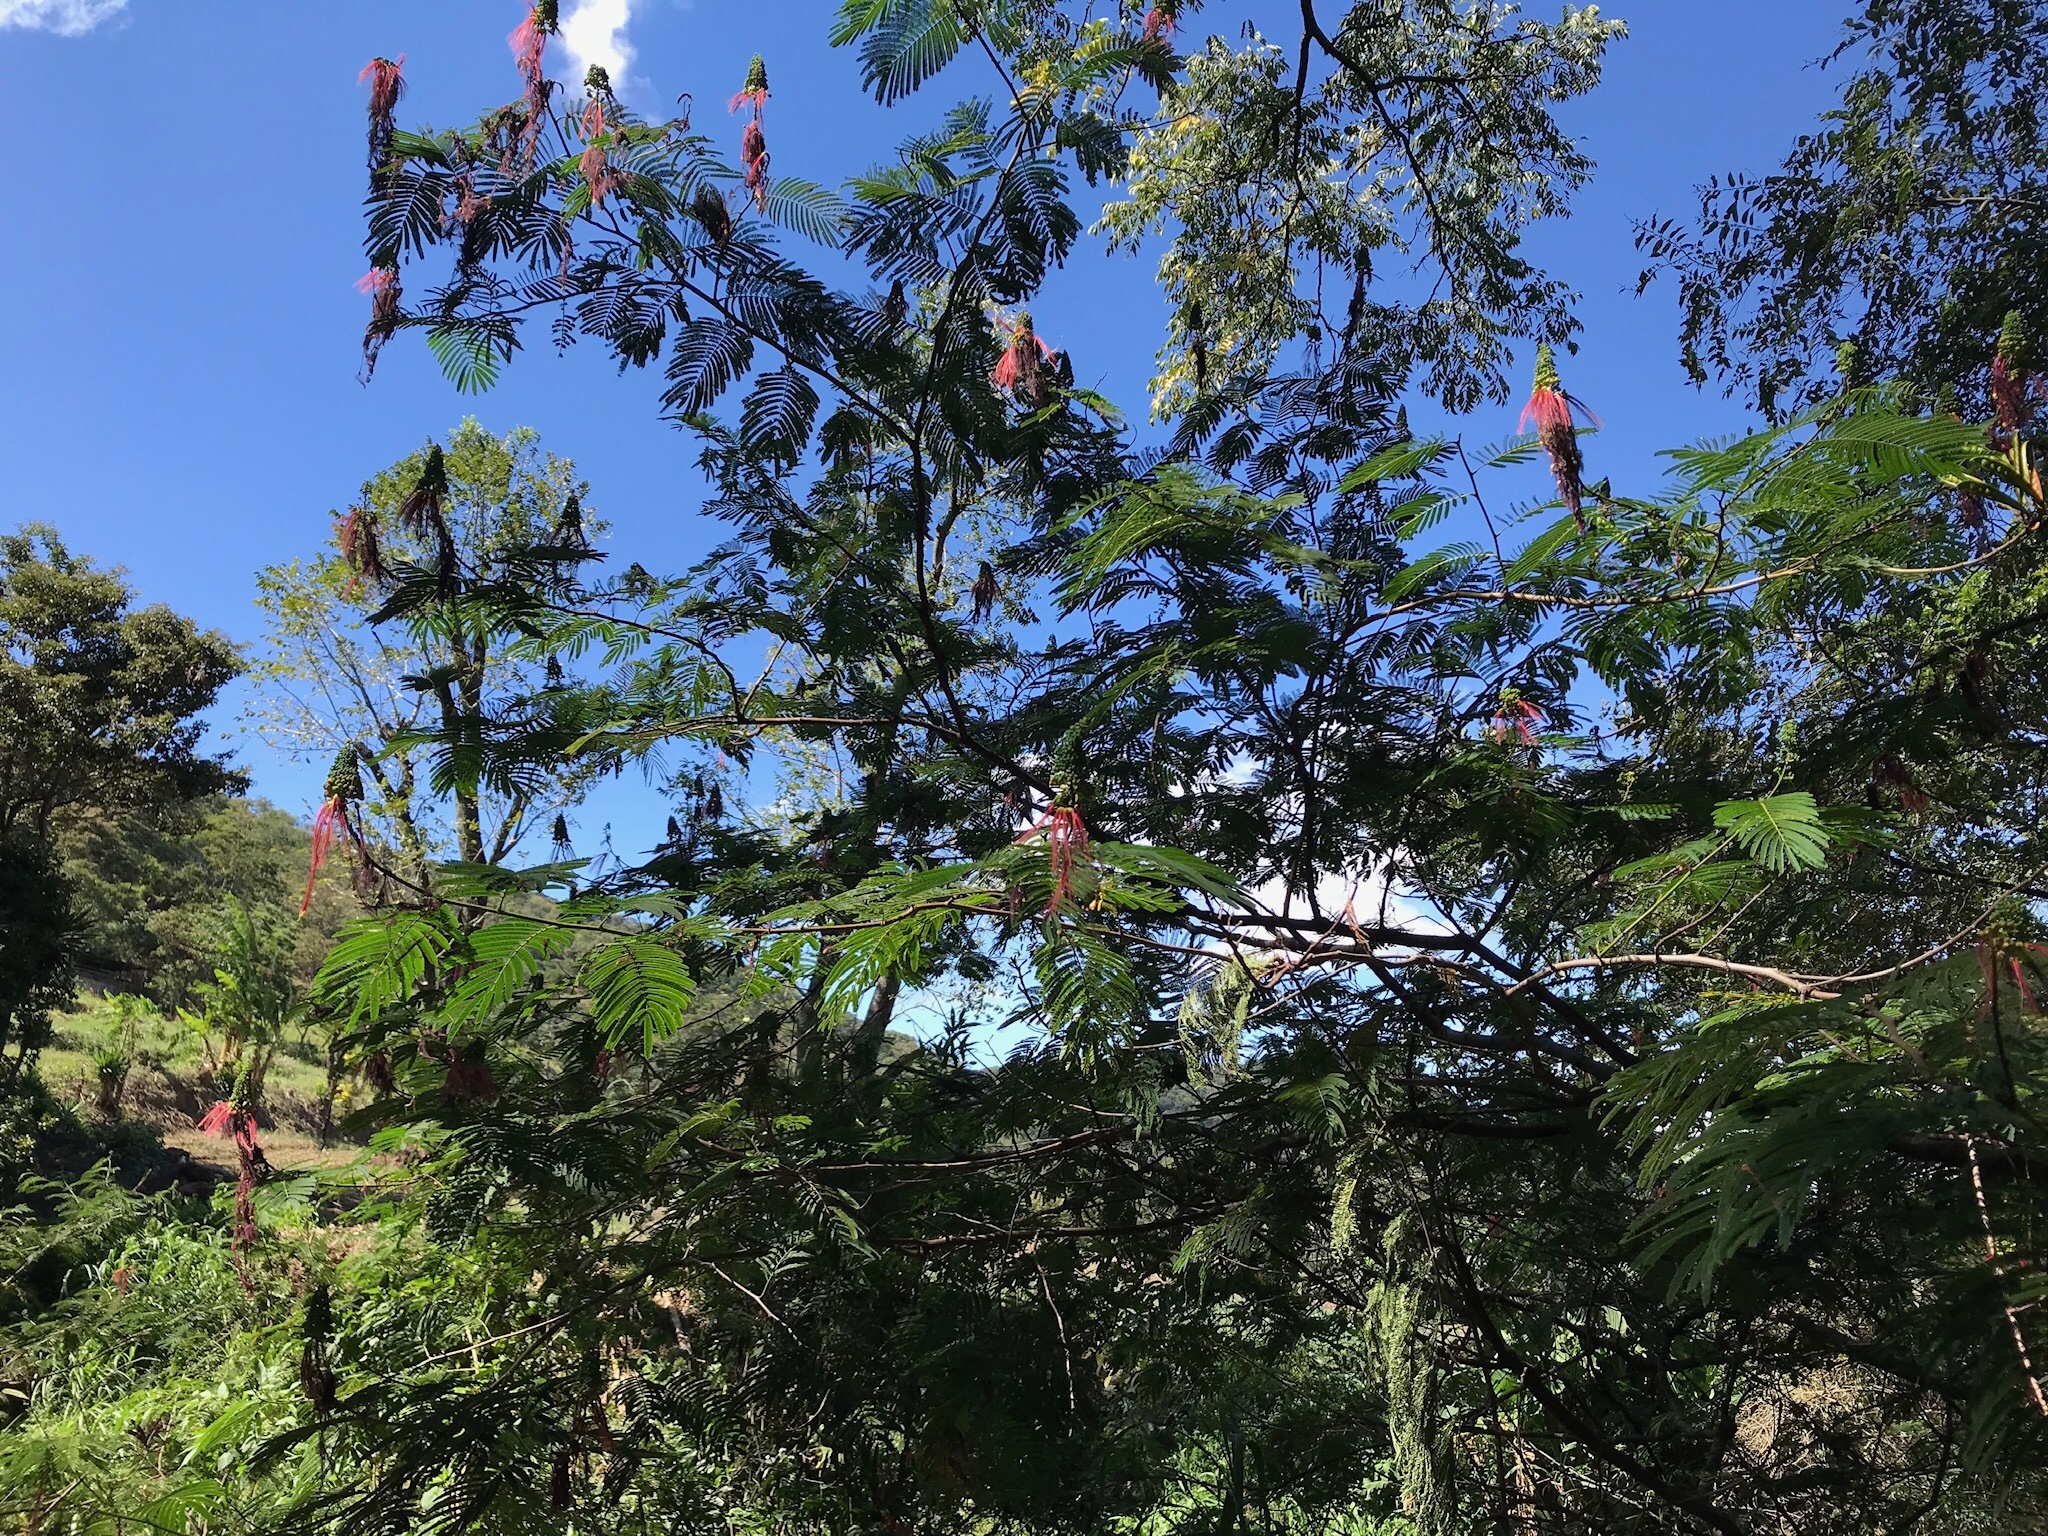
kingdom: Plantae
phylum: Tracheophyta
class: Magnoliopsida
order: Fabales
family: Fabaceae
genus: Calliandra
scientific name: Calliandra houstoniana
